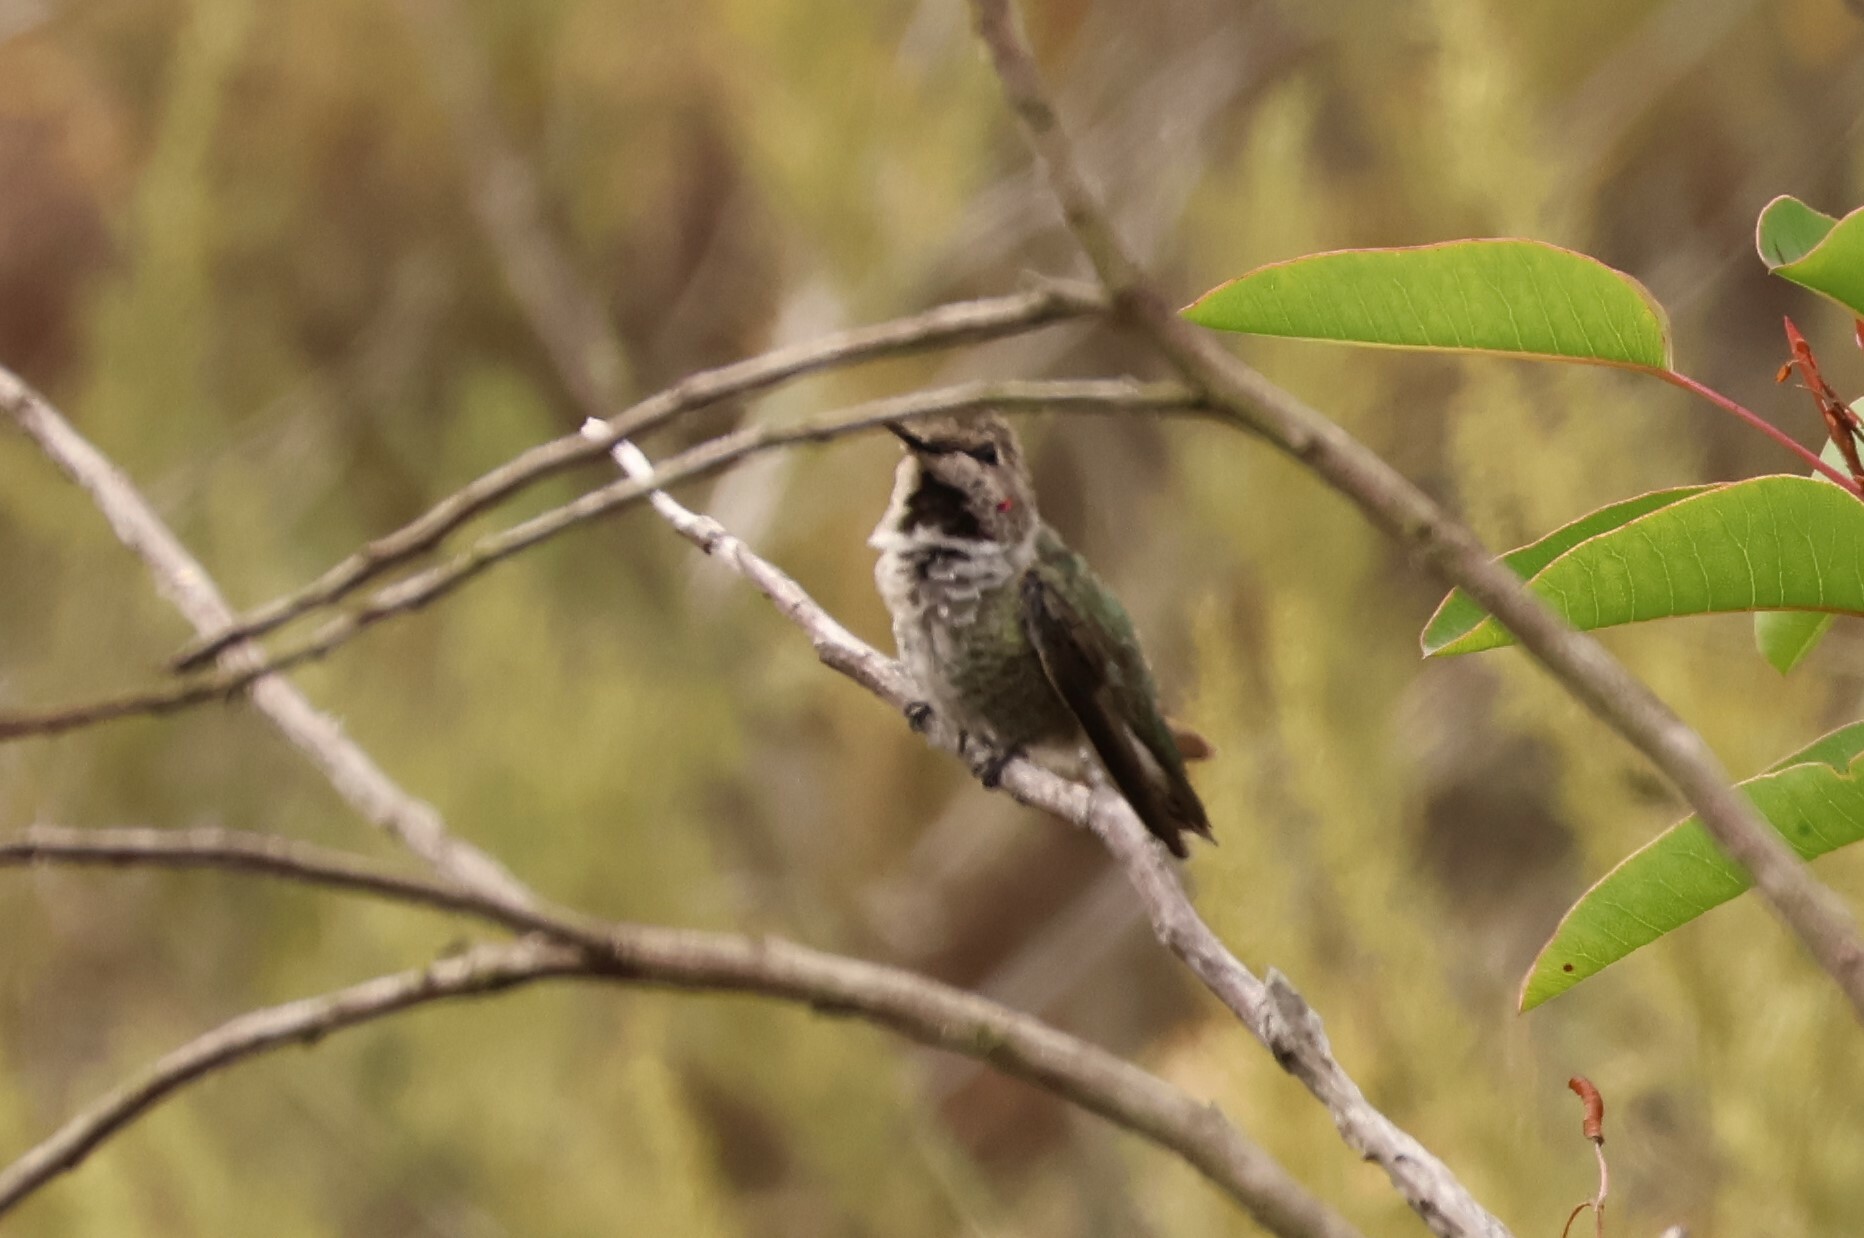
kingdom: Animalia
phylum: Chordata
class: Aves
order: Apodiformes
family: Trochilidae
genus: Calypte
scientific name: Calypte anna
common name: Anna's hummingbird
